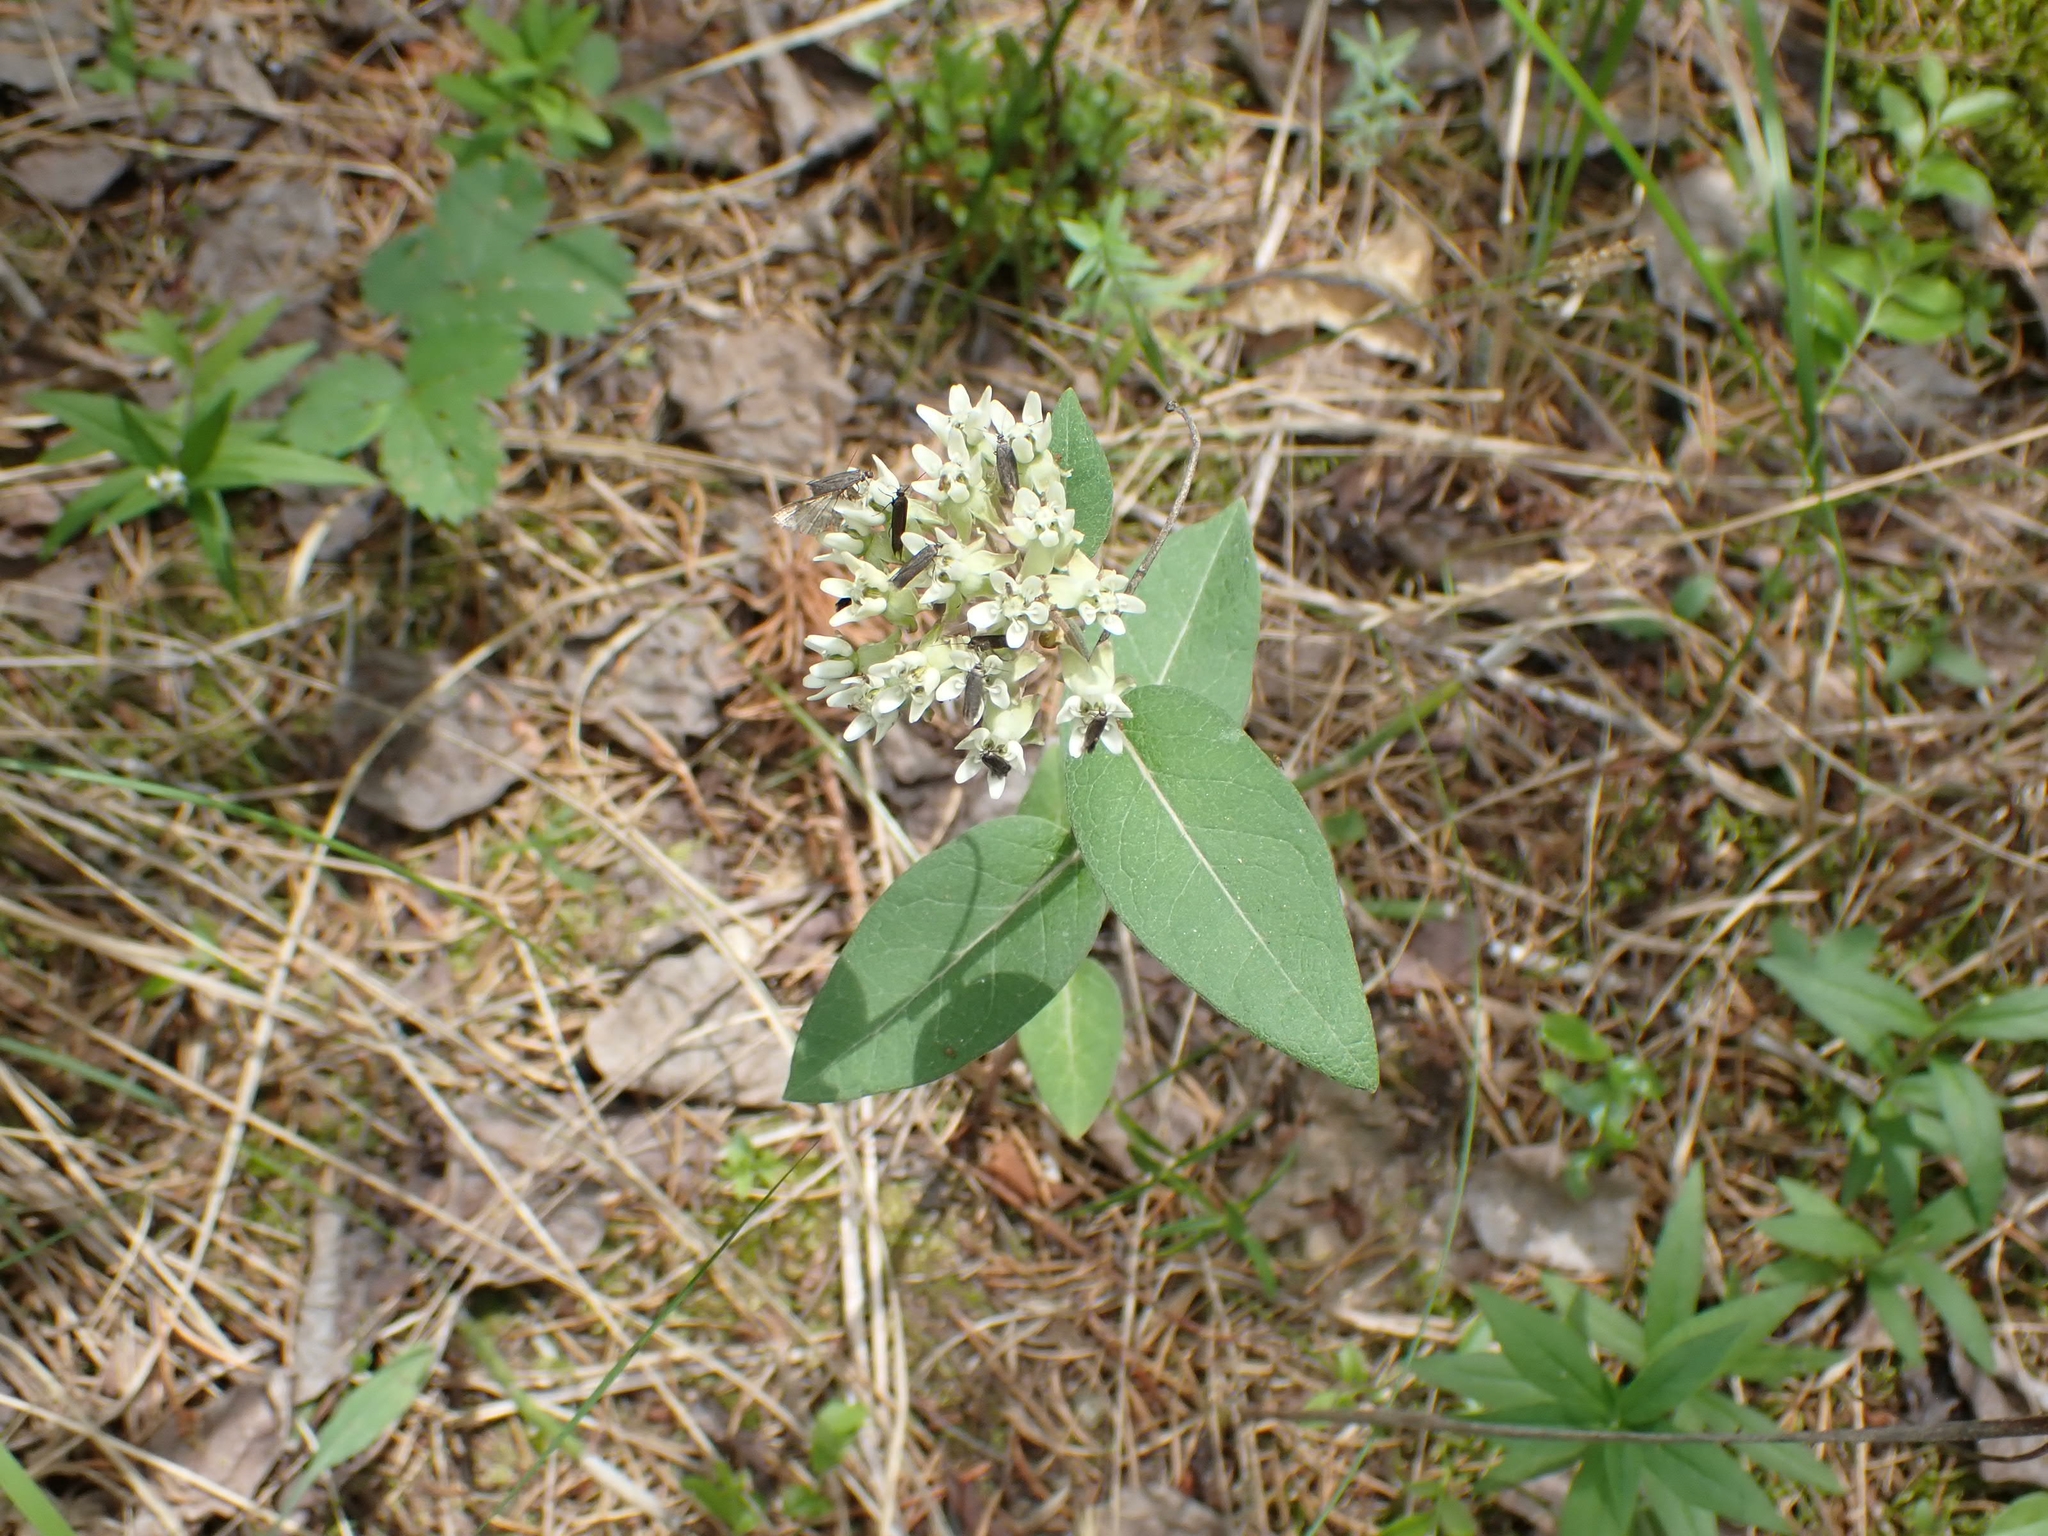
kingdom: Plantae
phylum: Tracheophyta
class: Magnoliopsida
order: Gentianales
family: Apocynaceae
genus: Asclepias
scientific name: Asclepias ovalifolia
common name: Dwarf milkweed
